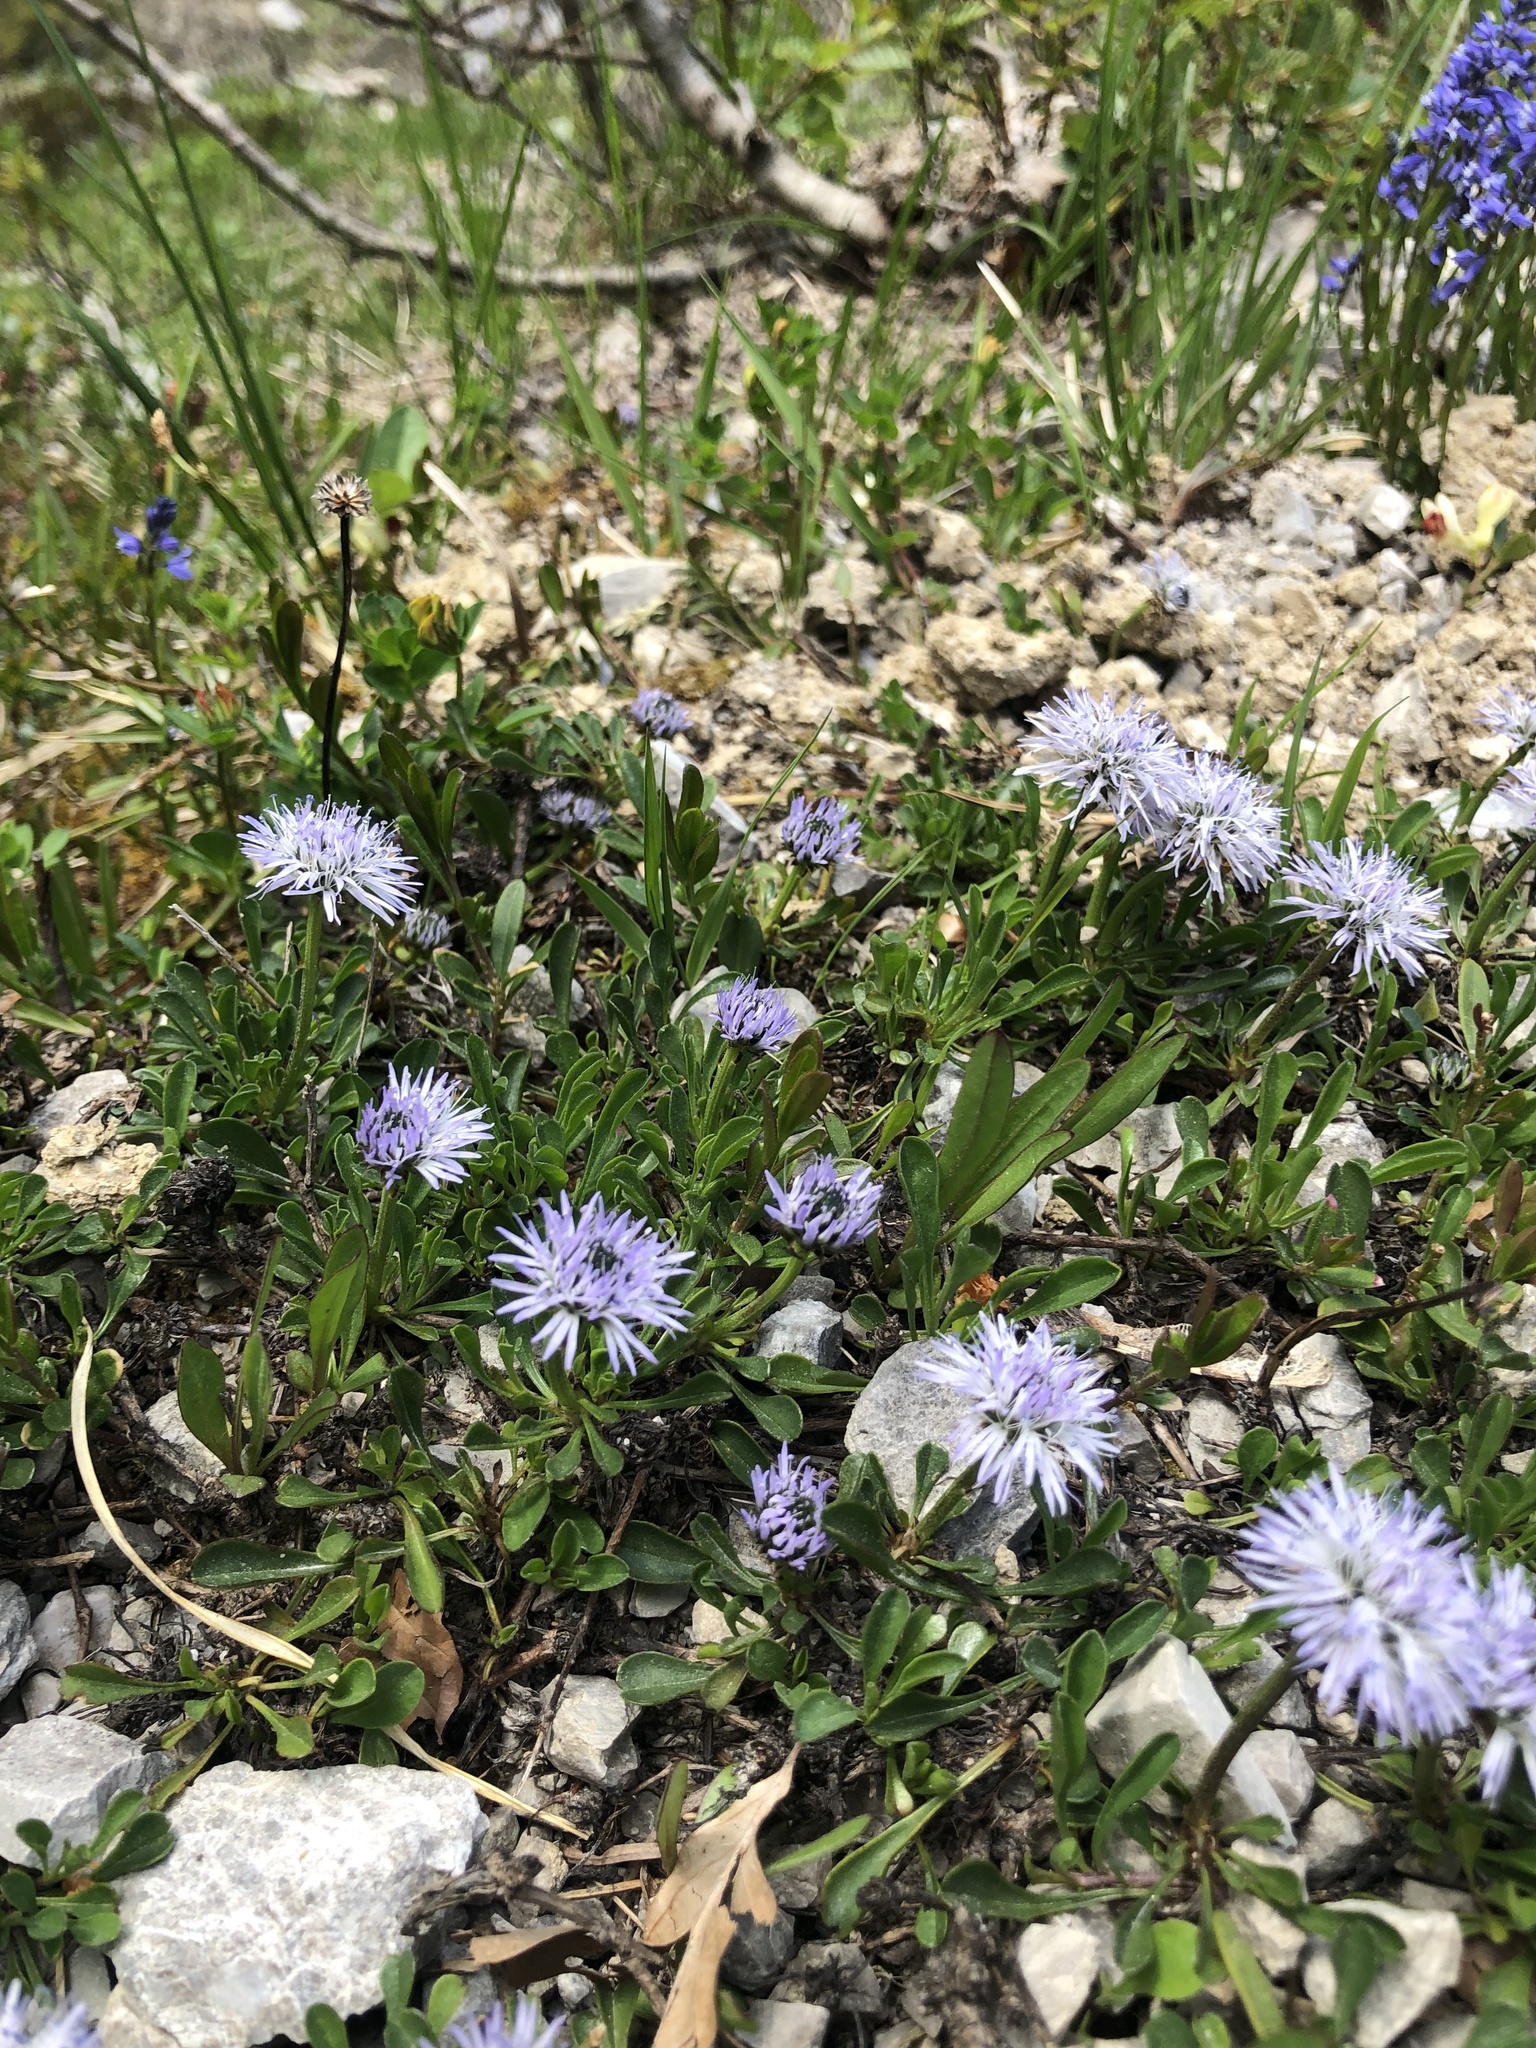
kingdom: Plantae
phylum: Tracheophyta
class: Magnoliopsida
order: Lamiales
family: Plantaginaceae
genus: Globularia
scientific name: Globularia cordifolia
